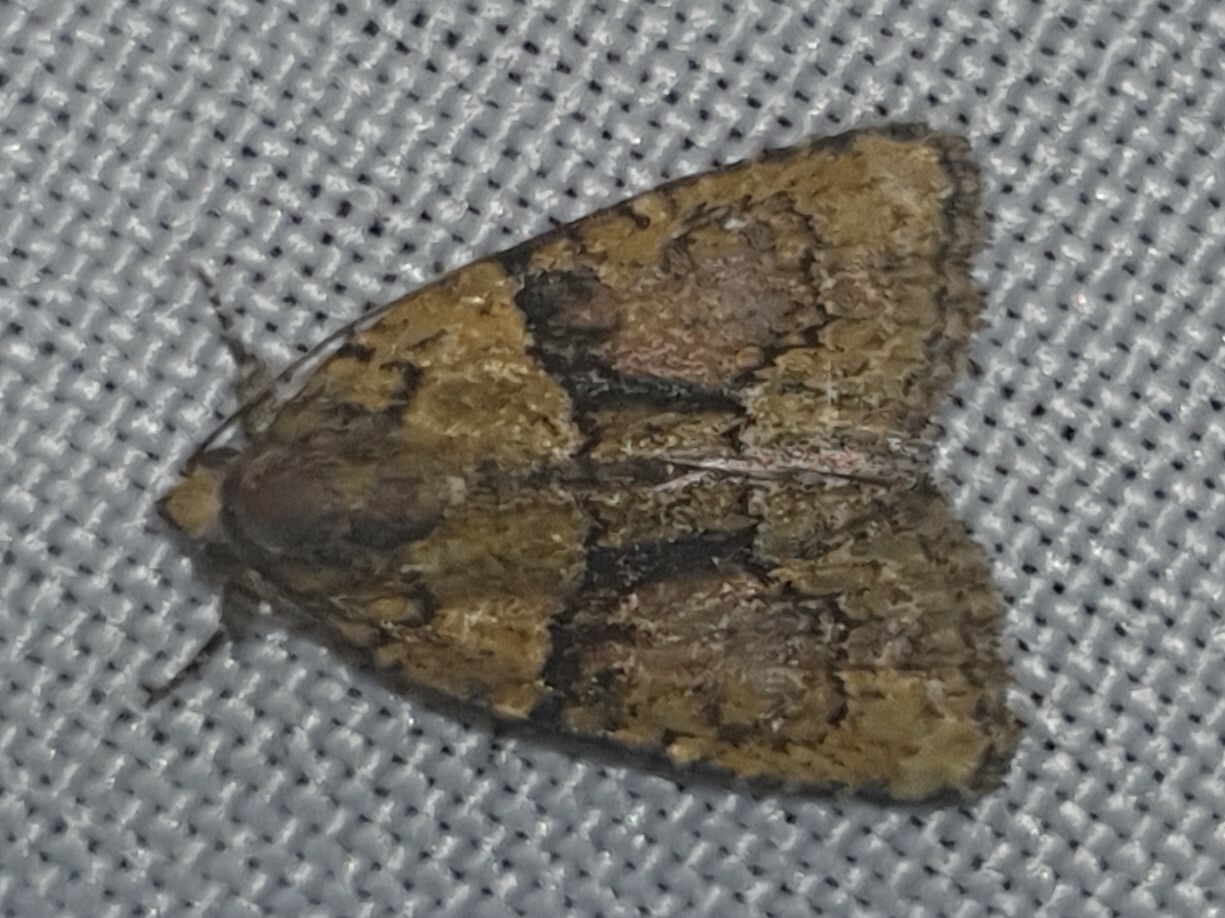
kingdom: Animalia
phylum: Arthropoda
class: Insecta
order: Lepidoptera
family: Noctuidae
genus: Cryphia
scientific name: Cryphia algae
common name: Tree-lichen beauty
